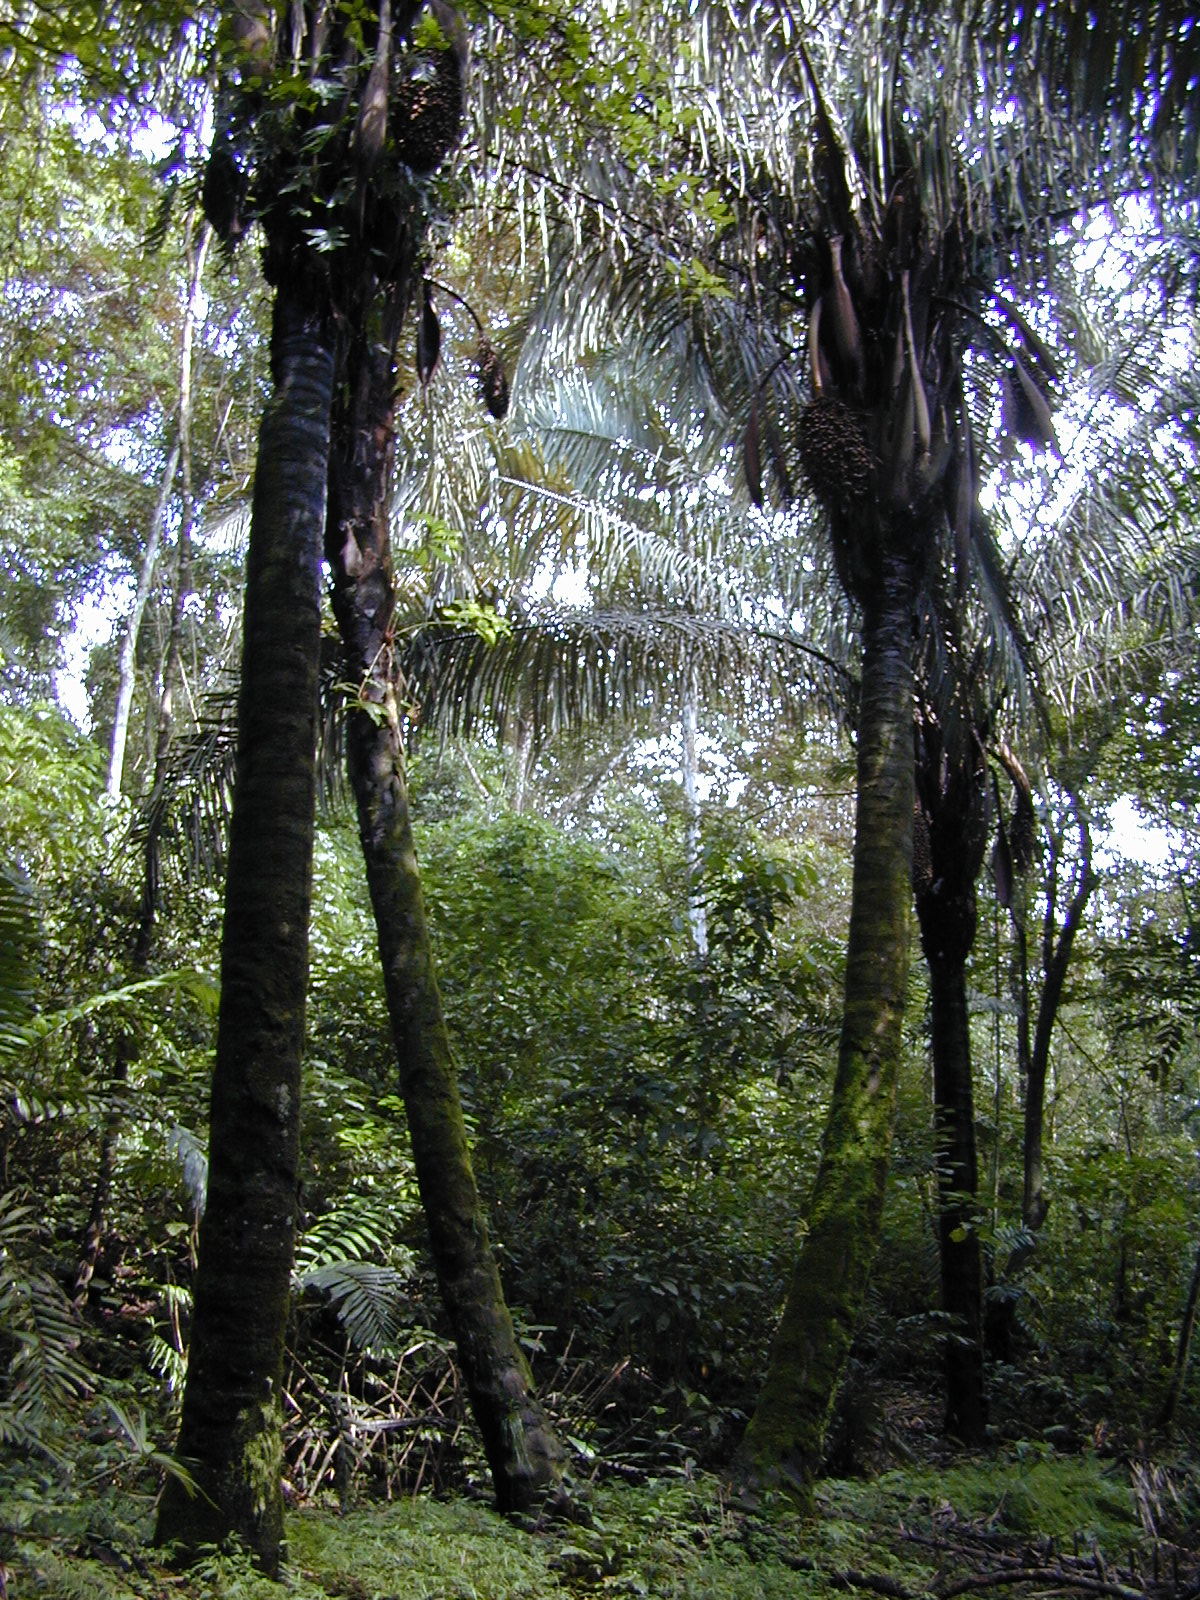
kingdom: Plantae
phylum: Tracheophyta
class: Liliopsida
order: Arecales
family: Arecaceae
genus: Attalea
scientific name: Attalea butyracea
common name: Kuakish
